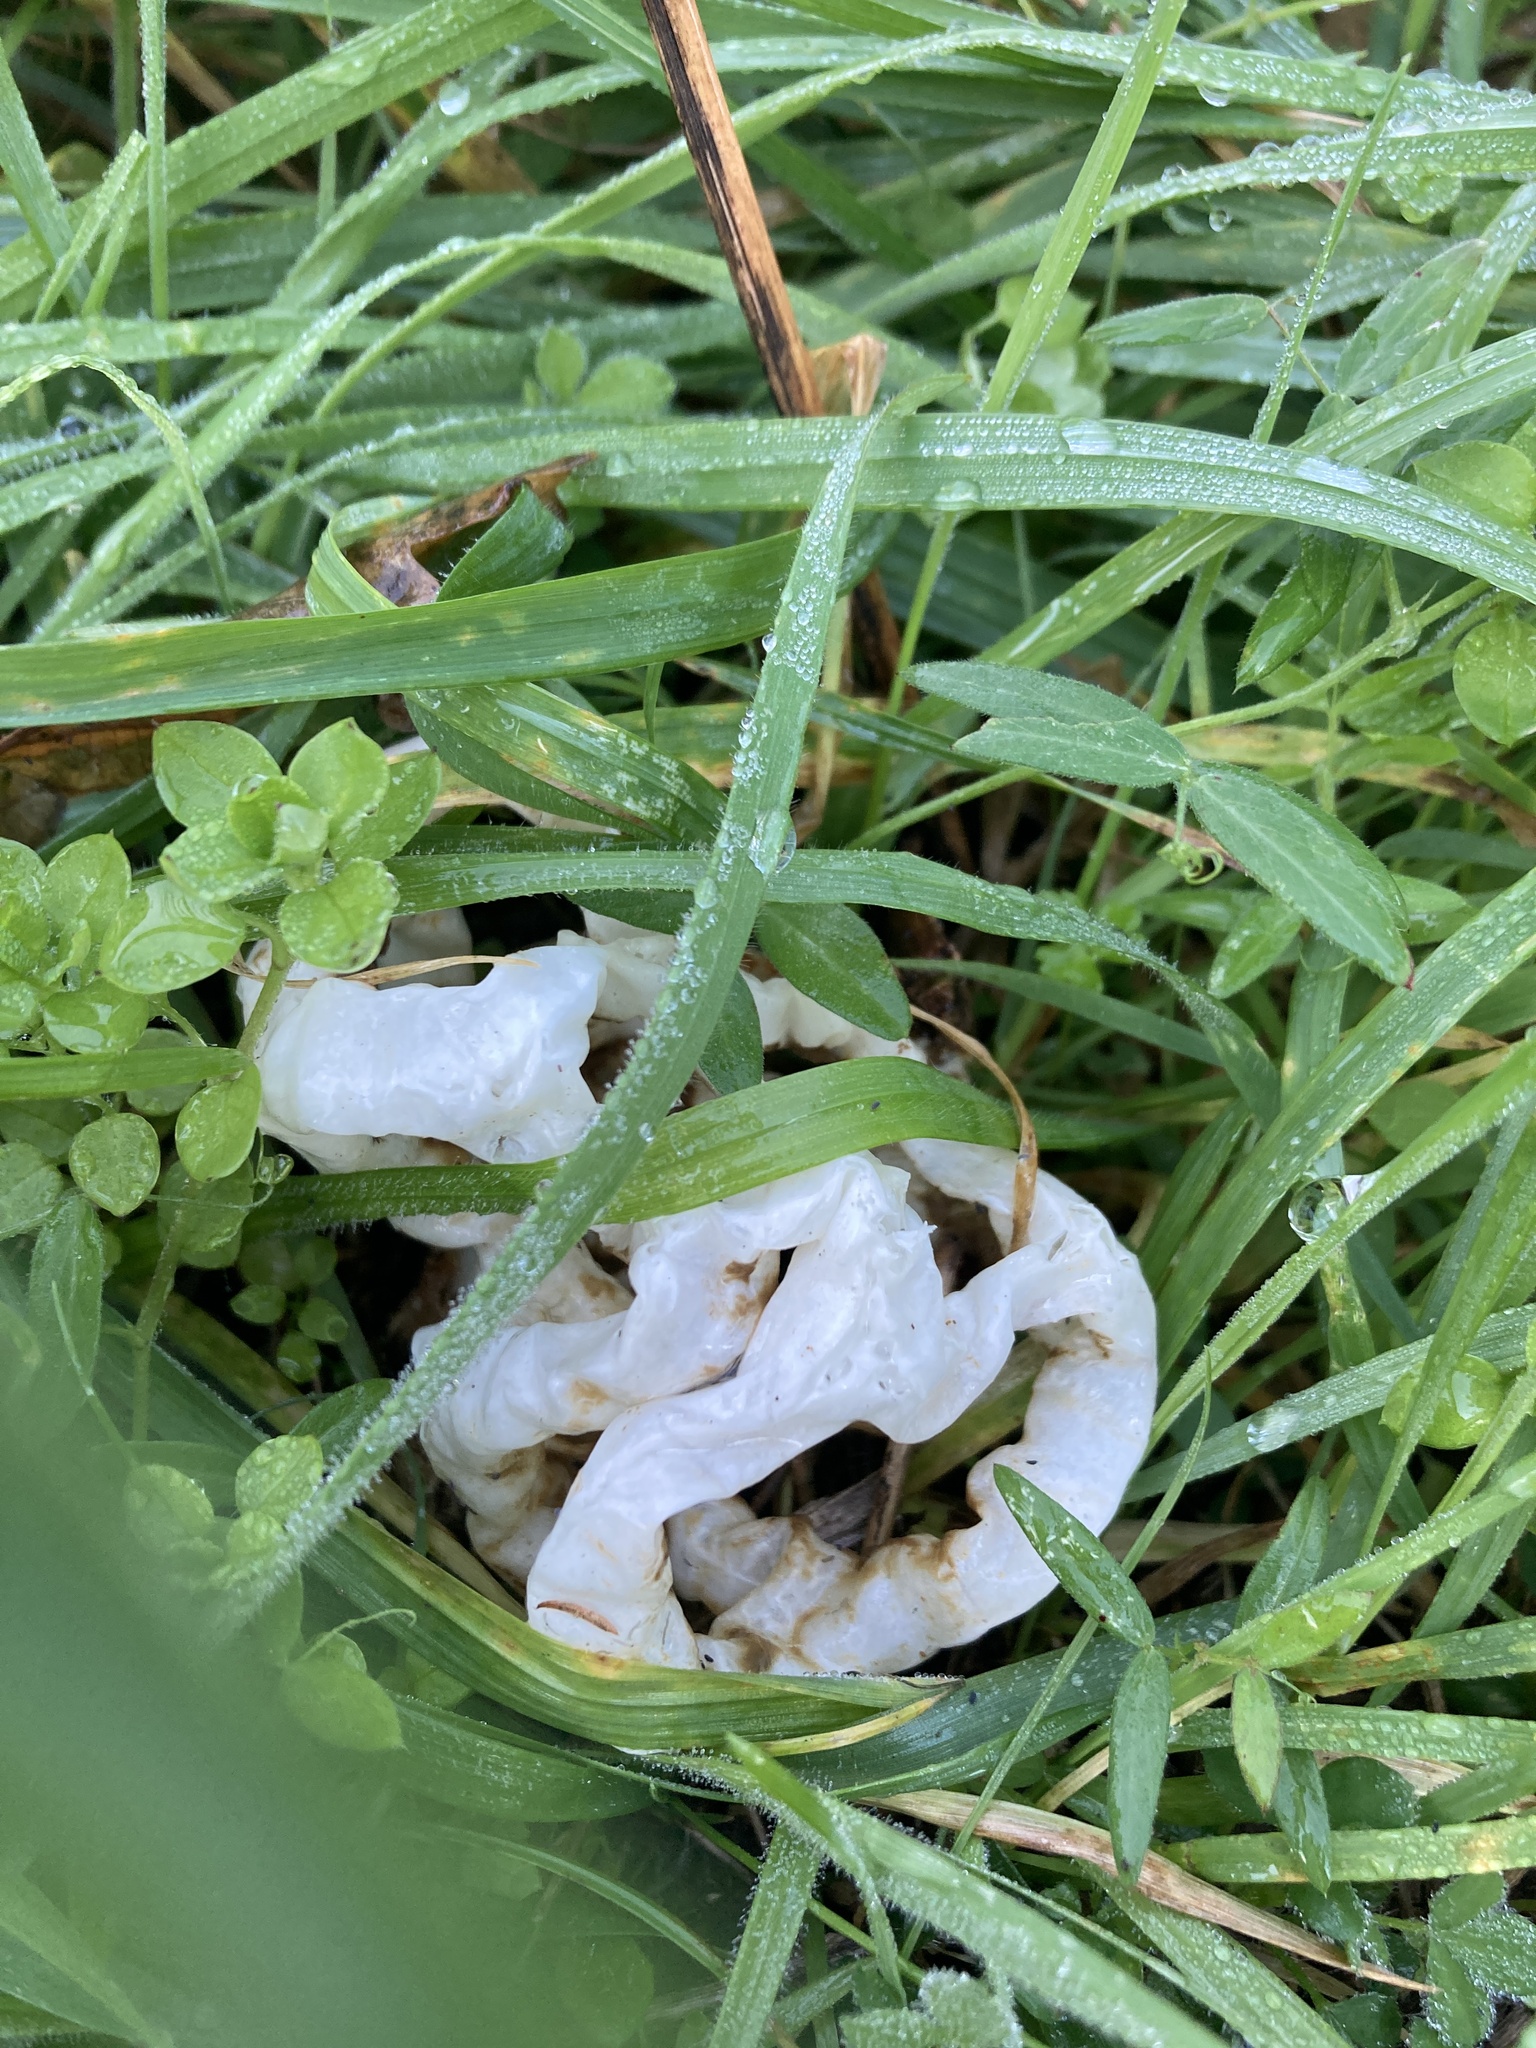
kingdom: Fungi
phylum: Basidiomycota
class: Agaricomycetes
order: Phallales
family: Phallaceae
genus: Ileodictyon
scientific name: Ileodictyon cibarium
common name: Basket fungus
